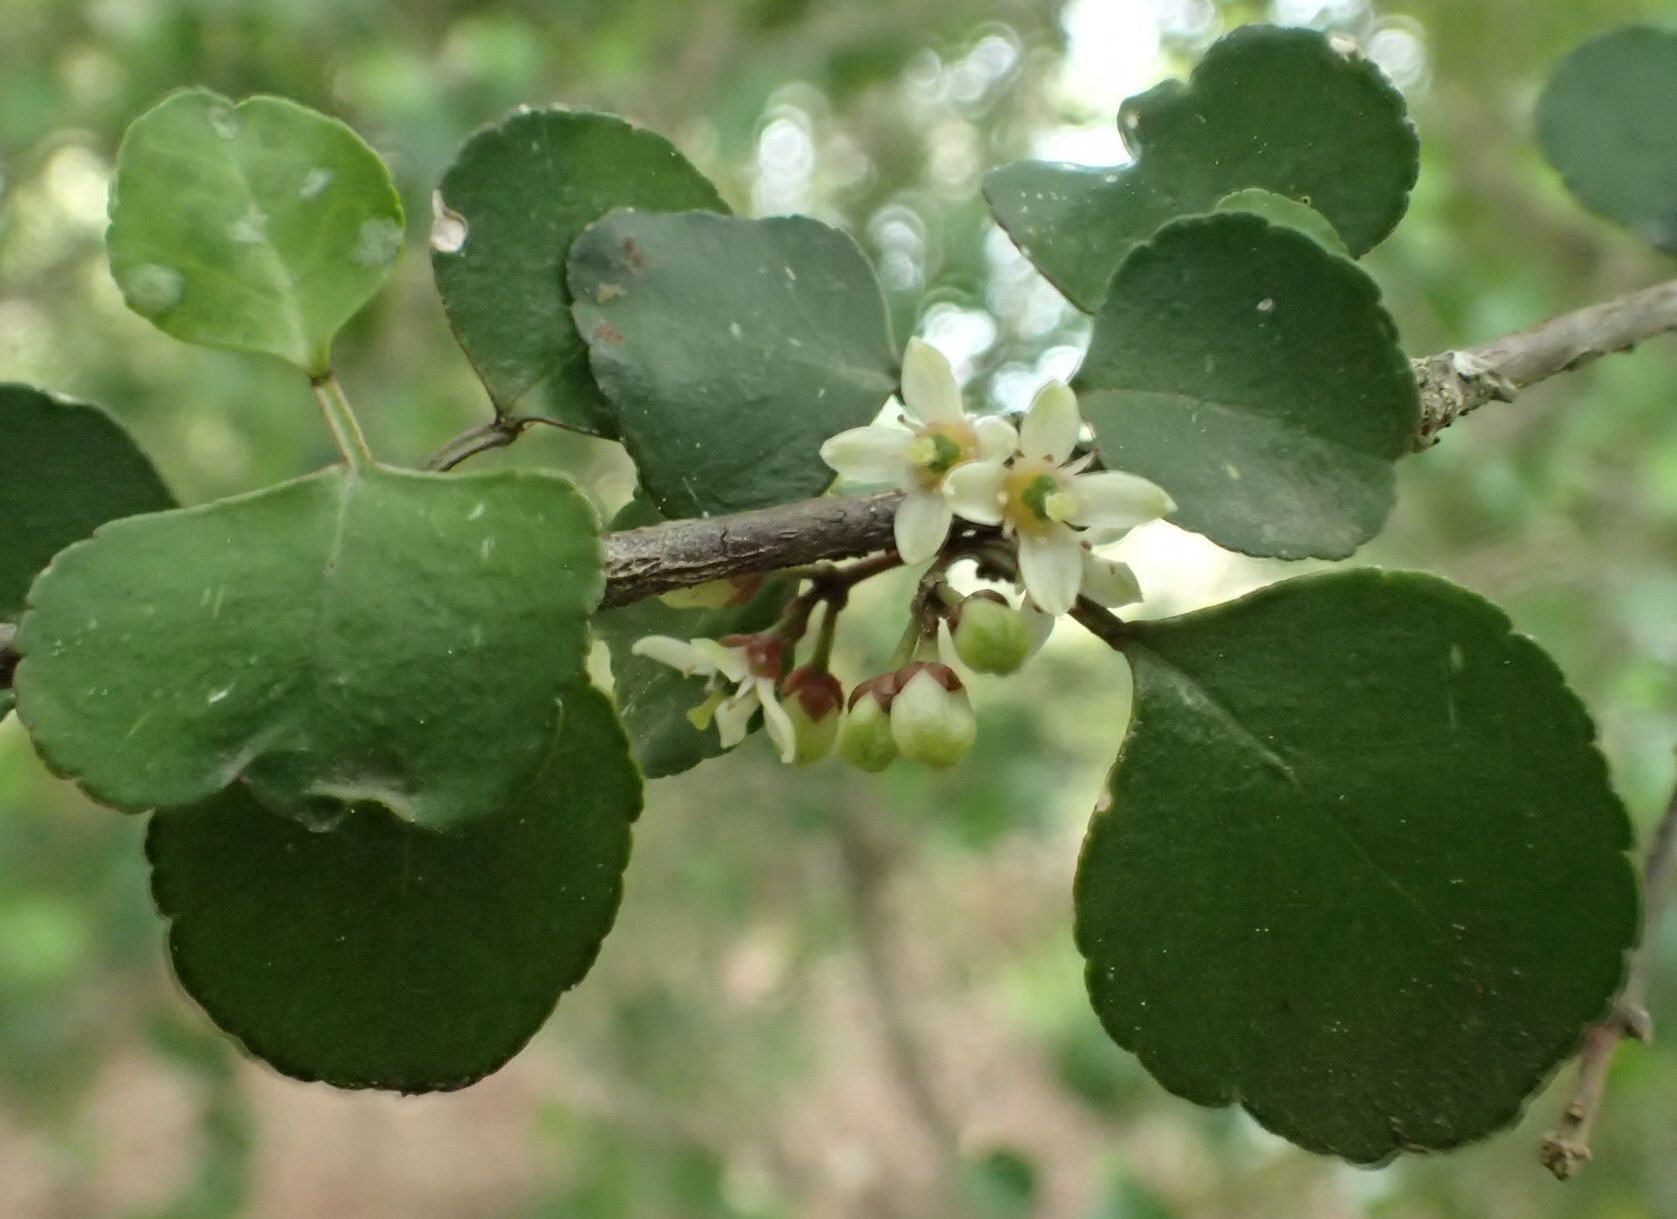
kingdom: Plantae
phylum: Tracheophyta
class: Magnoliopsida
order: Sapindales
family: Rutaceae
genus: Melicope
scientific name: Melicope simplex
